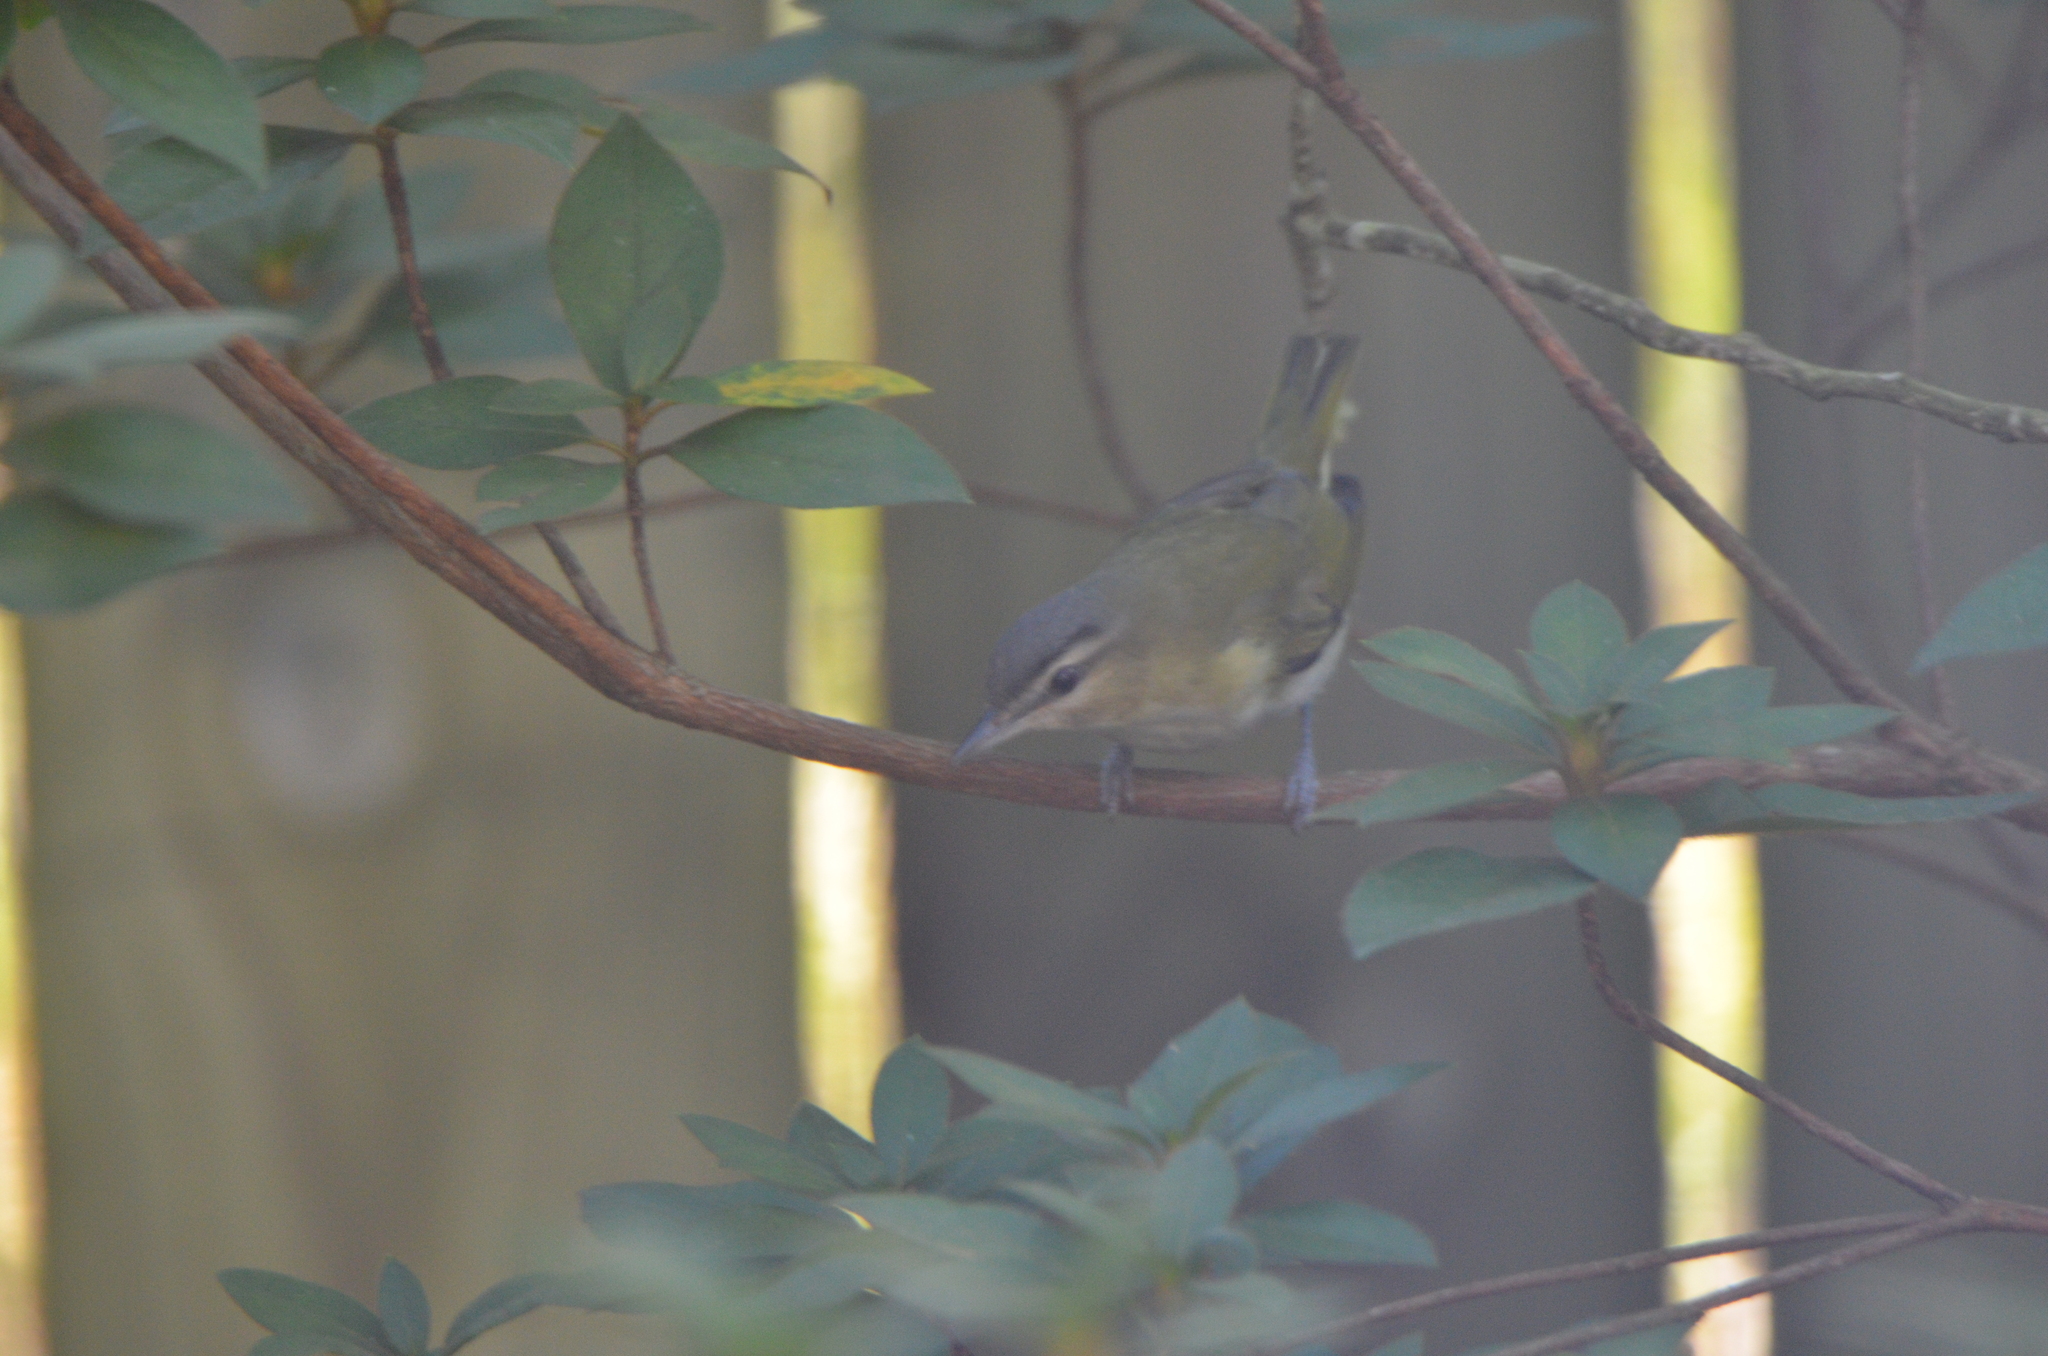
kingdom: Animalia
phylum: Chordata
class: Aves
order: Passeriformes
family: Vireonidae
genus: Vireo
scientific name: Vireo olivaceus
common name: Red-eyed vireo
